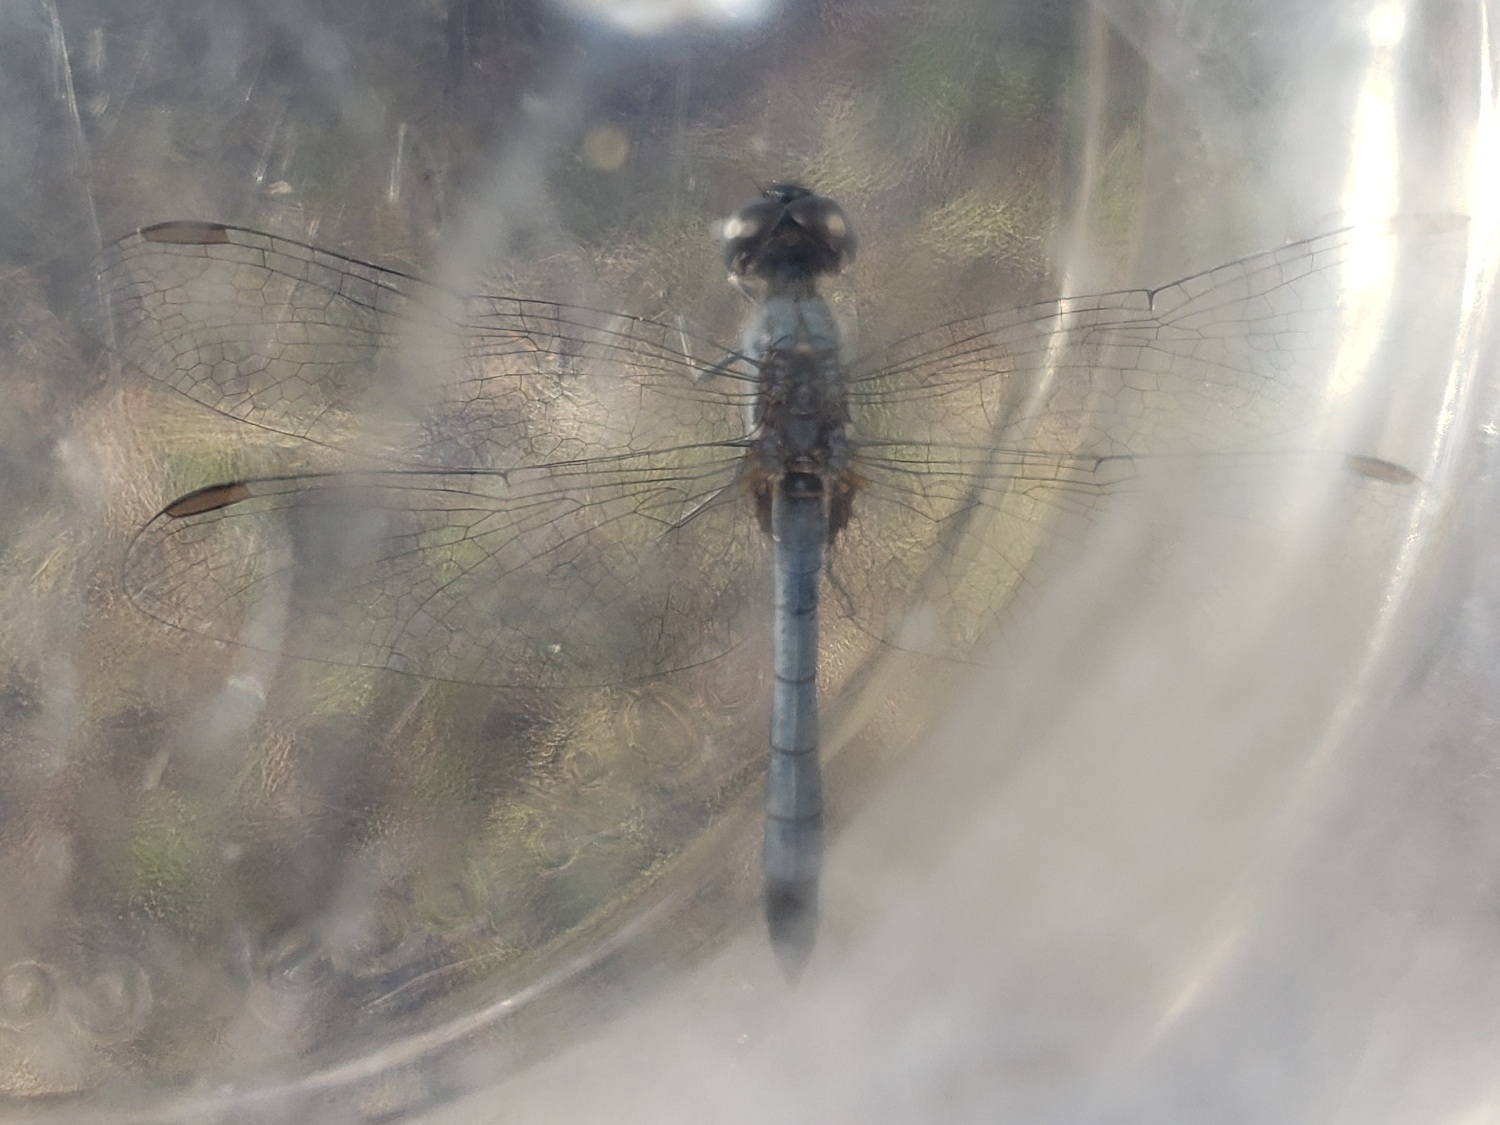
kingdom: Animalia
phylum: Arthropoda
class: Insecta
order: Odonata
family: Libellulidae
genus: Erythrodiplax
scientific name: Erythrodiplax minuscula
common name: Little blue dragonlet
